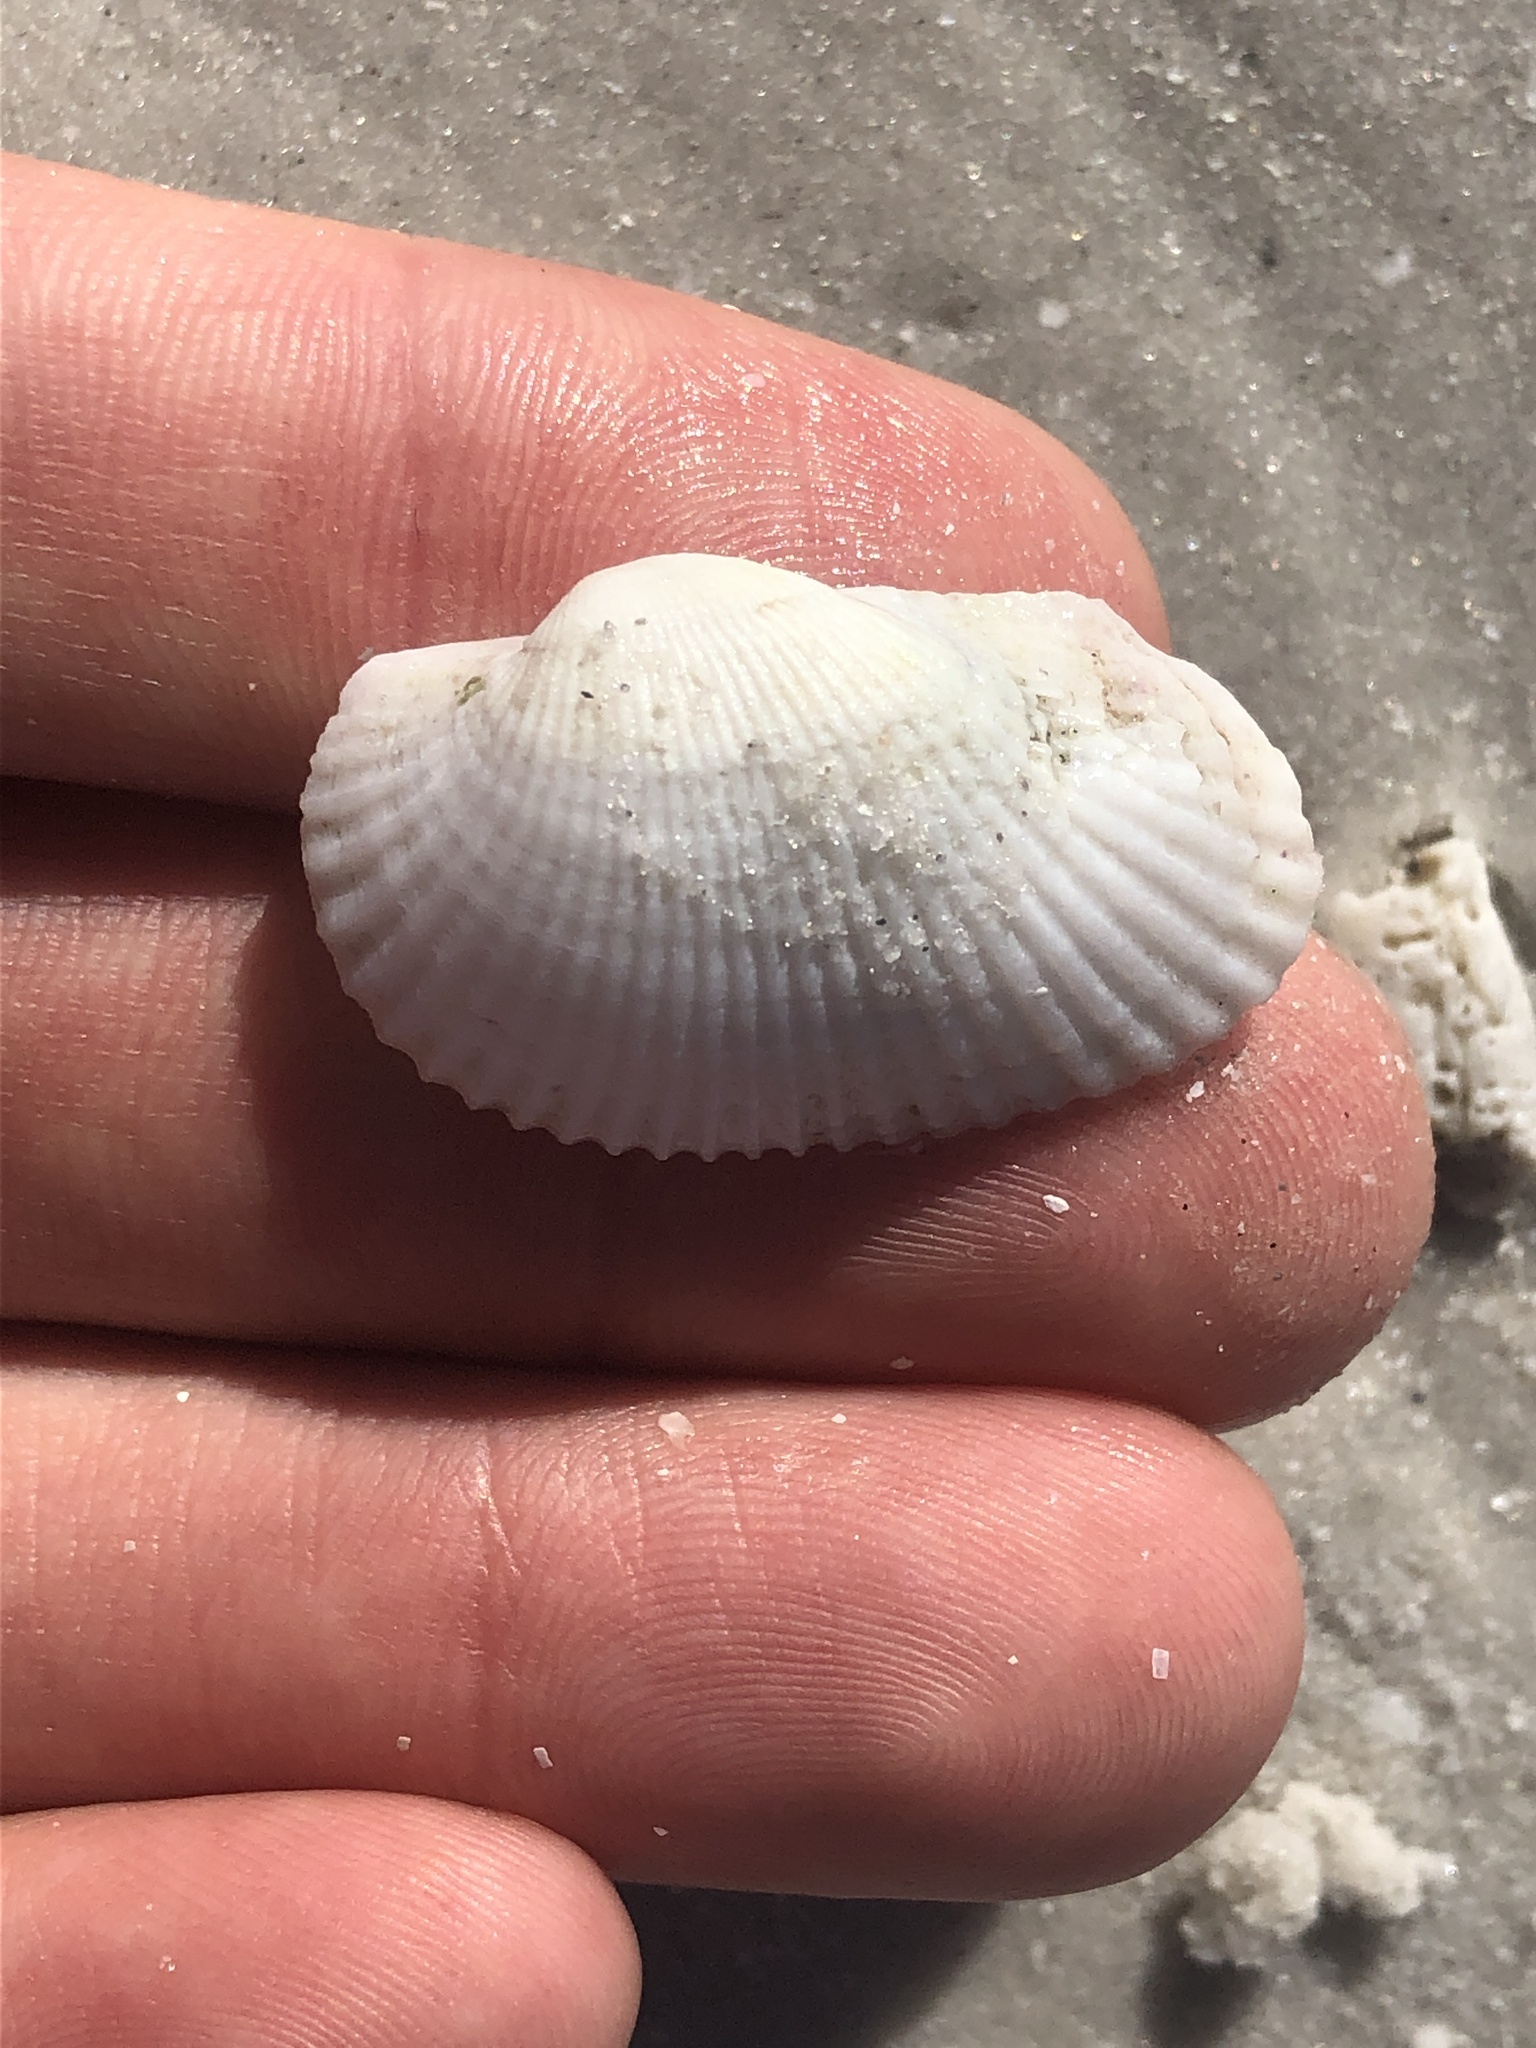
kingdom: Animalia
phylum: Mollusca
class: Bivalvia
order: Arcida
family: Arcidae
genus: Anadara
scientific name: Anadara transversa
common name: Transverse ark
